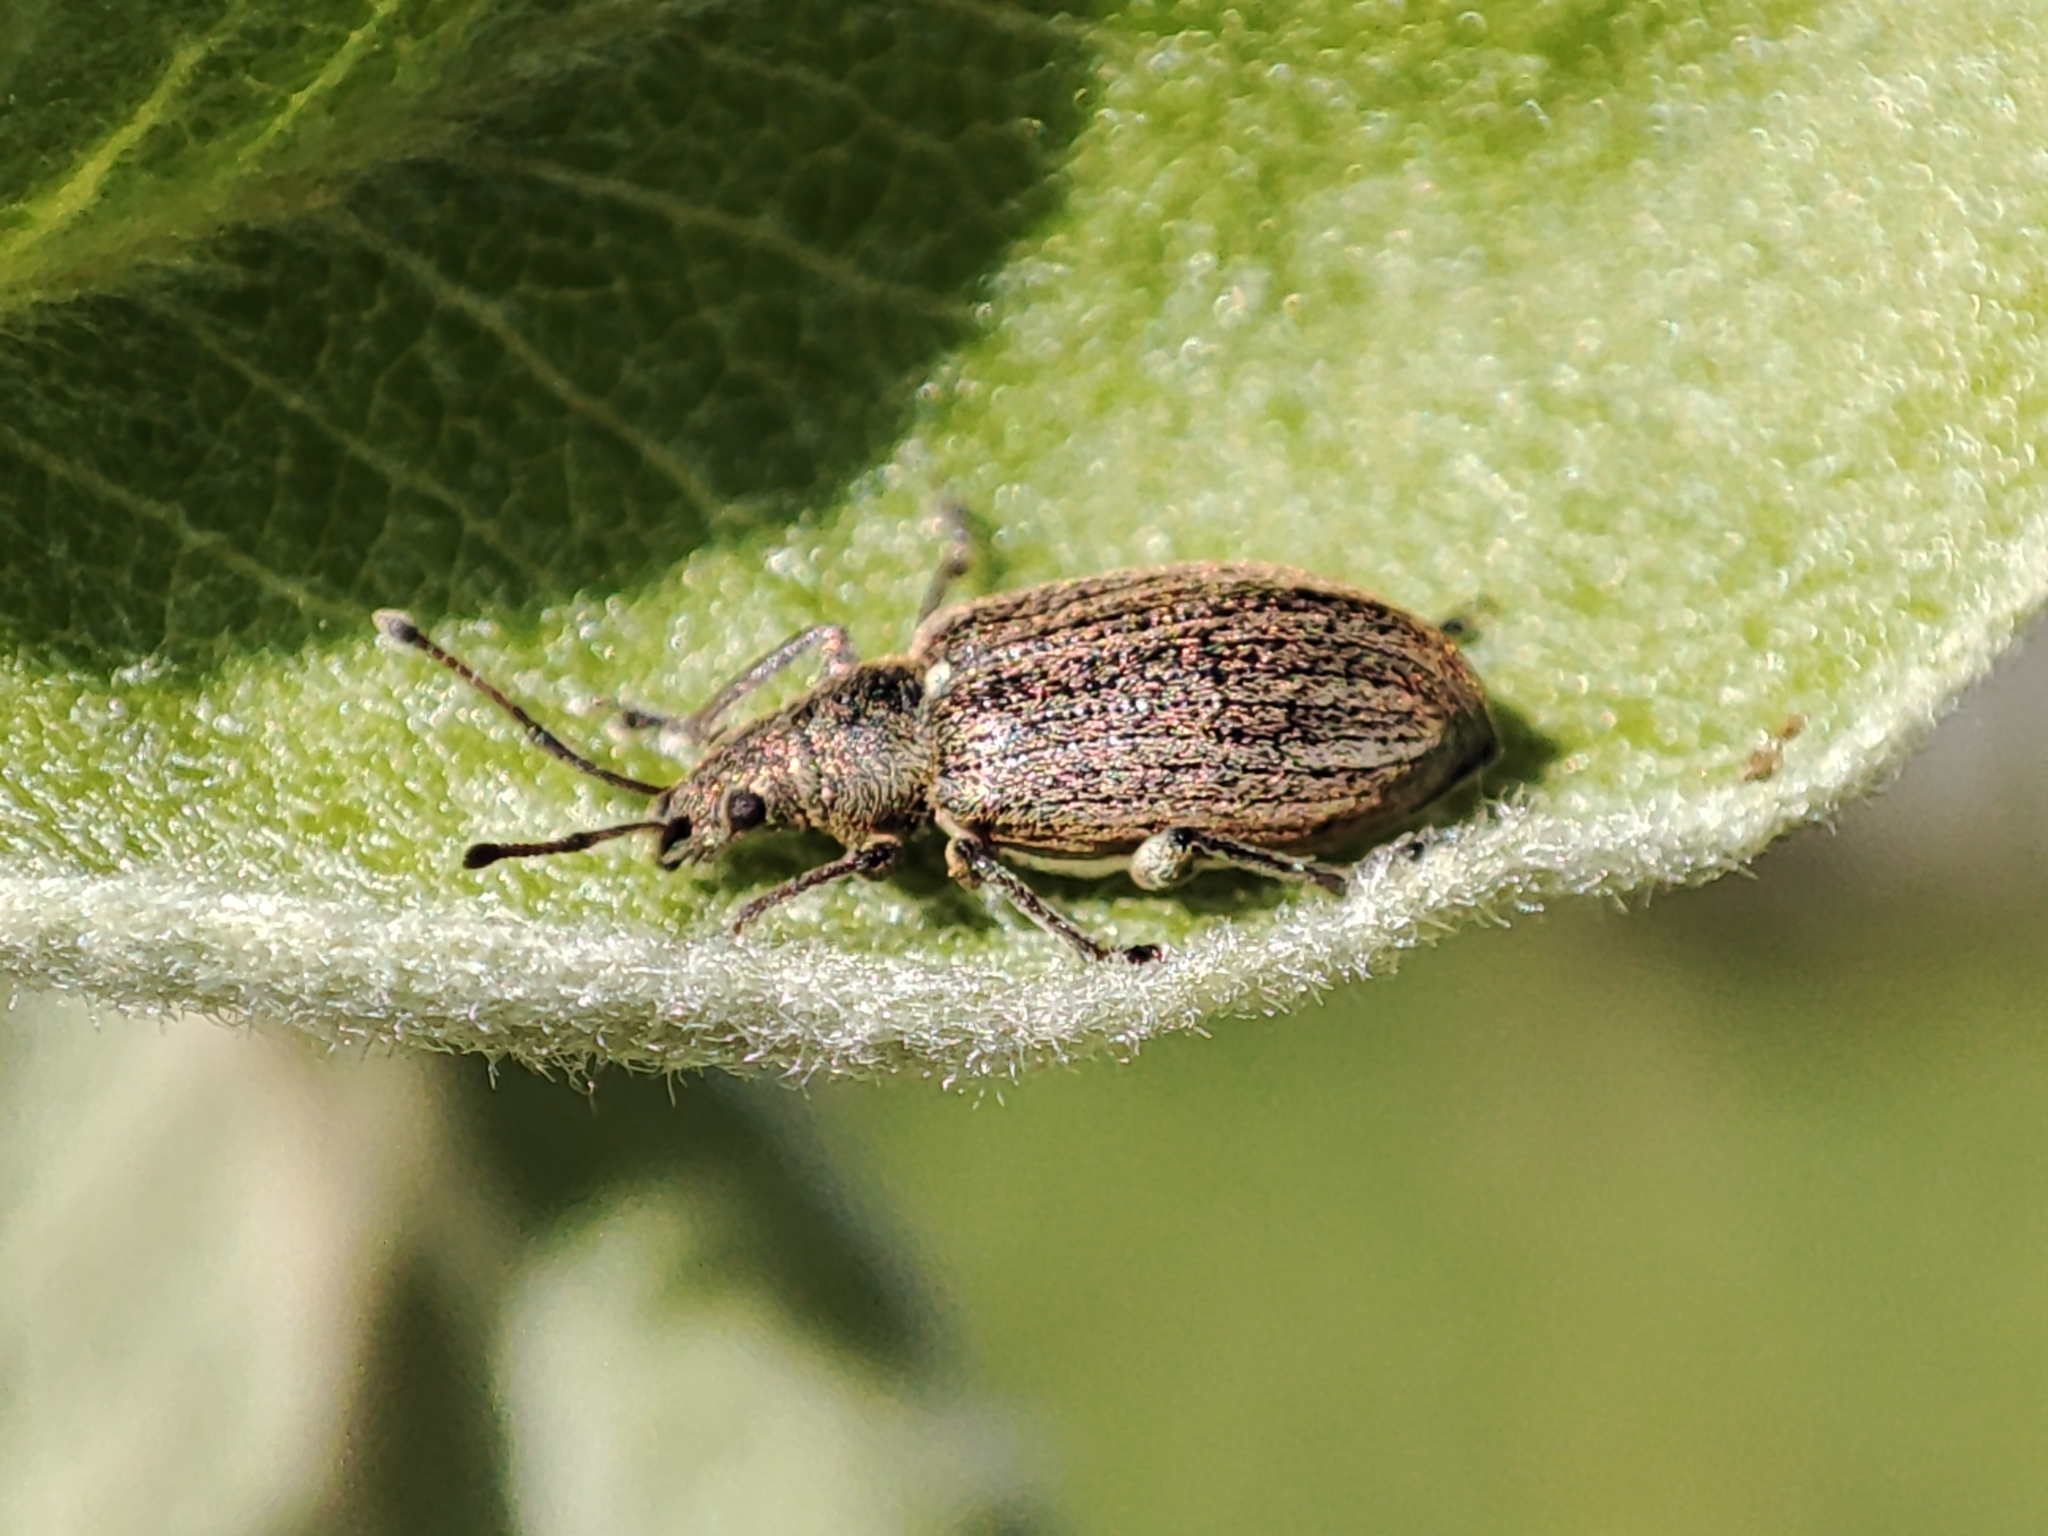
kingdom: Animalia
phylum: Arthropoda
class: Insecta
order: Coleoptera
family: Curculionidae
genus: Phyllobius
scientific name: Phyllobius pyri
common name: Common leaf weevil
